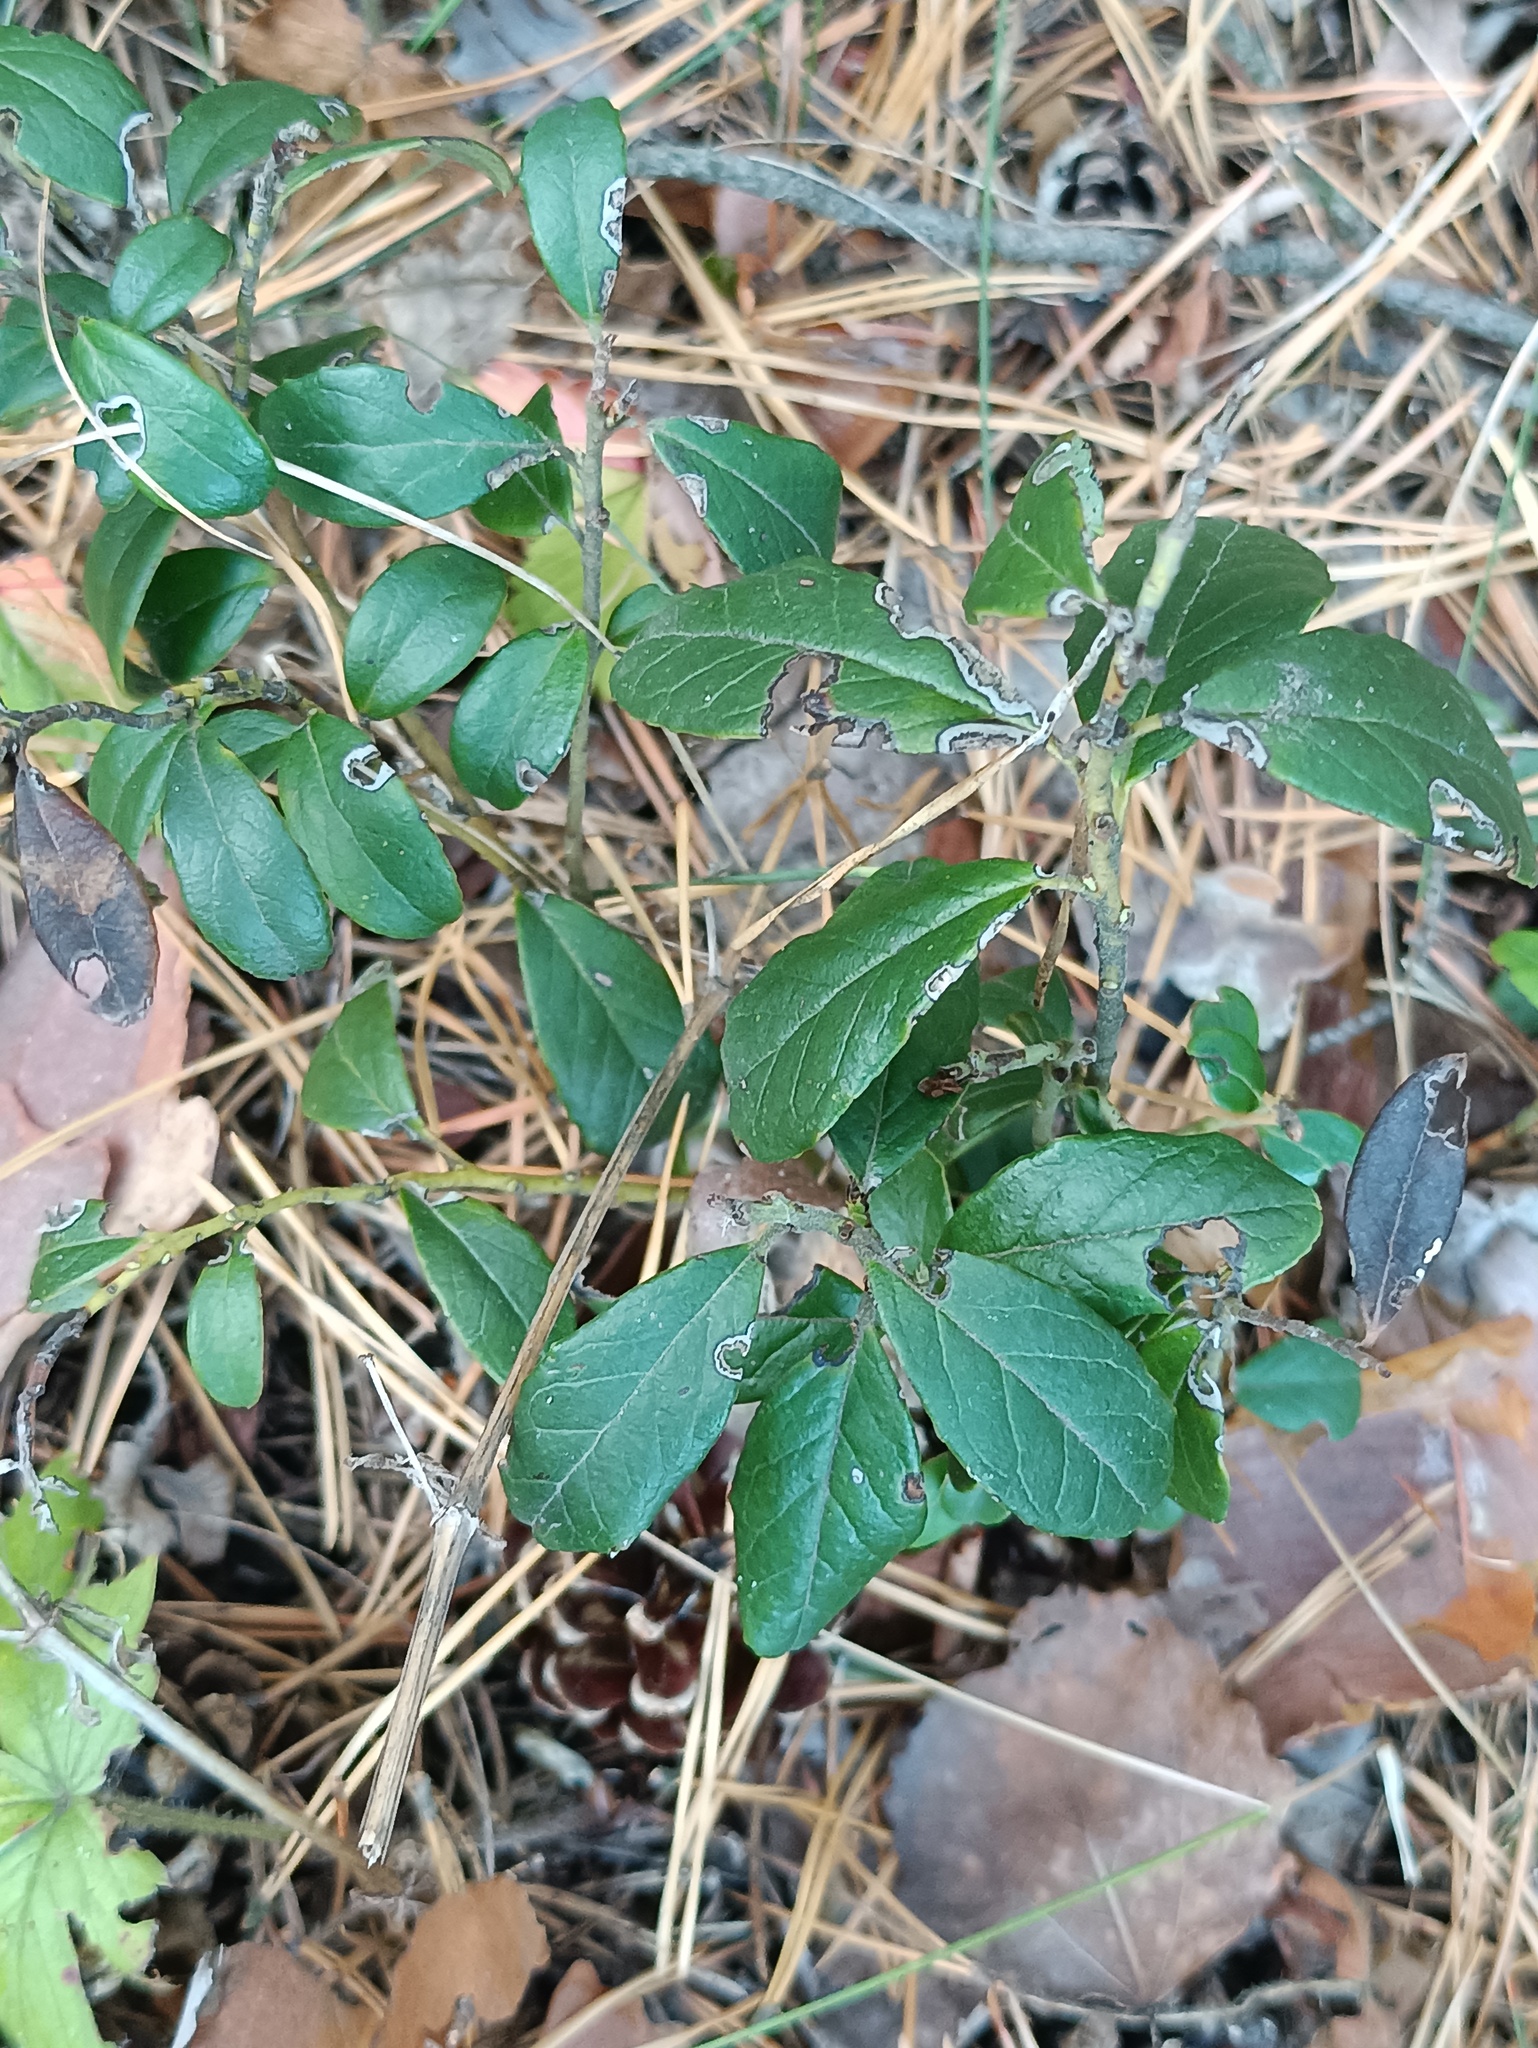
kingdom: Plantae
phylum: Tracheophyta
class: Magnoliopsida
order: Ericales
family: Ericaceae
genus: Vaccinium
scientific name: Vaccinium vitis-idaea
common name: Cowberry
